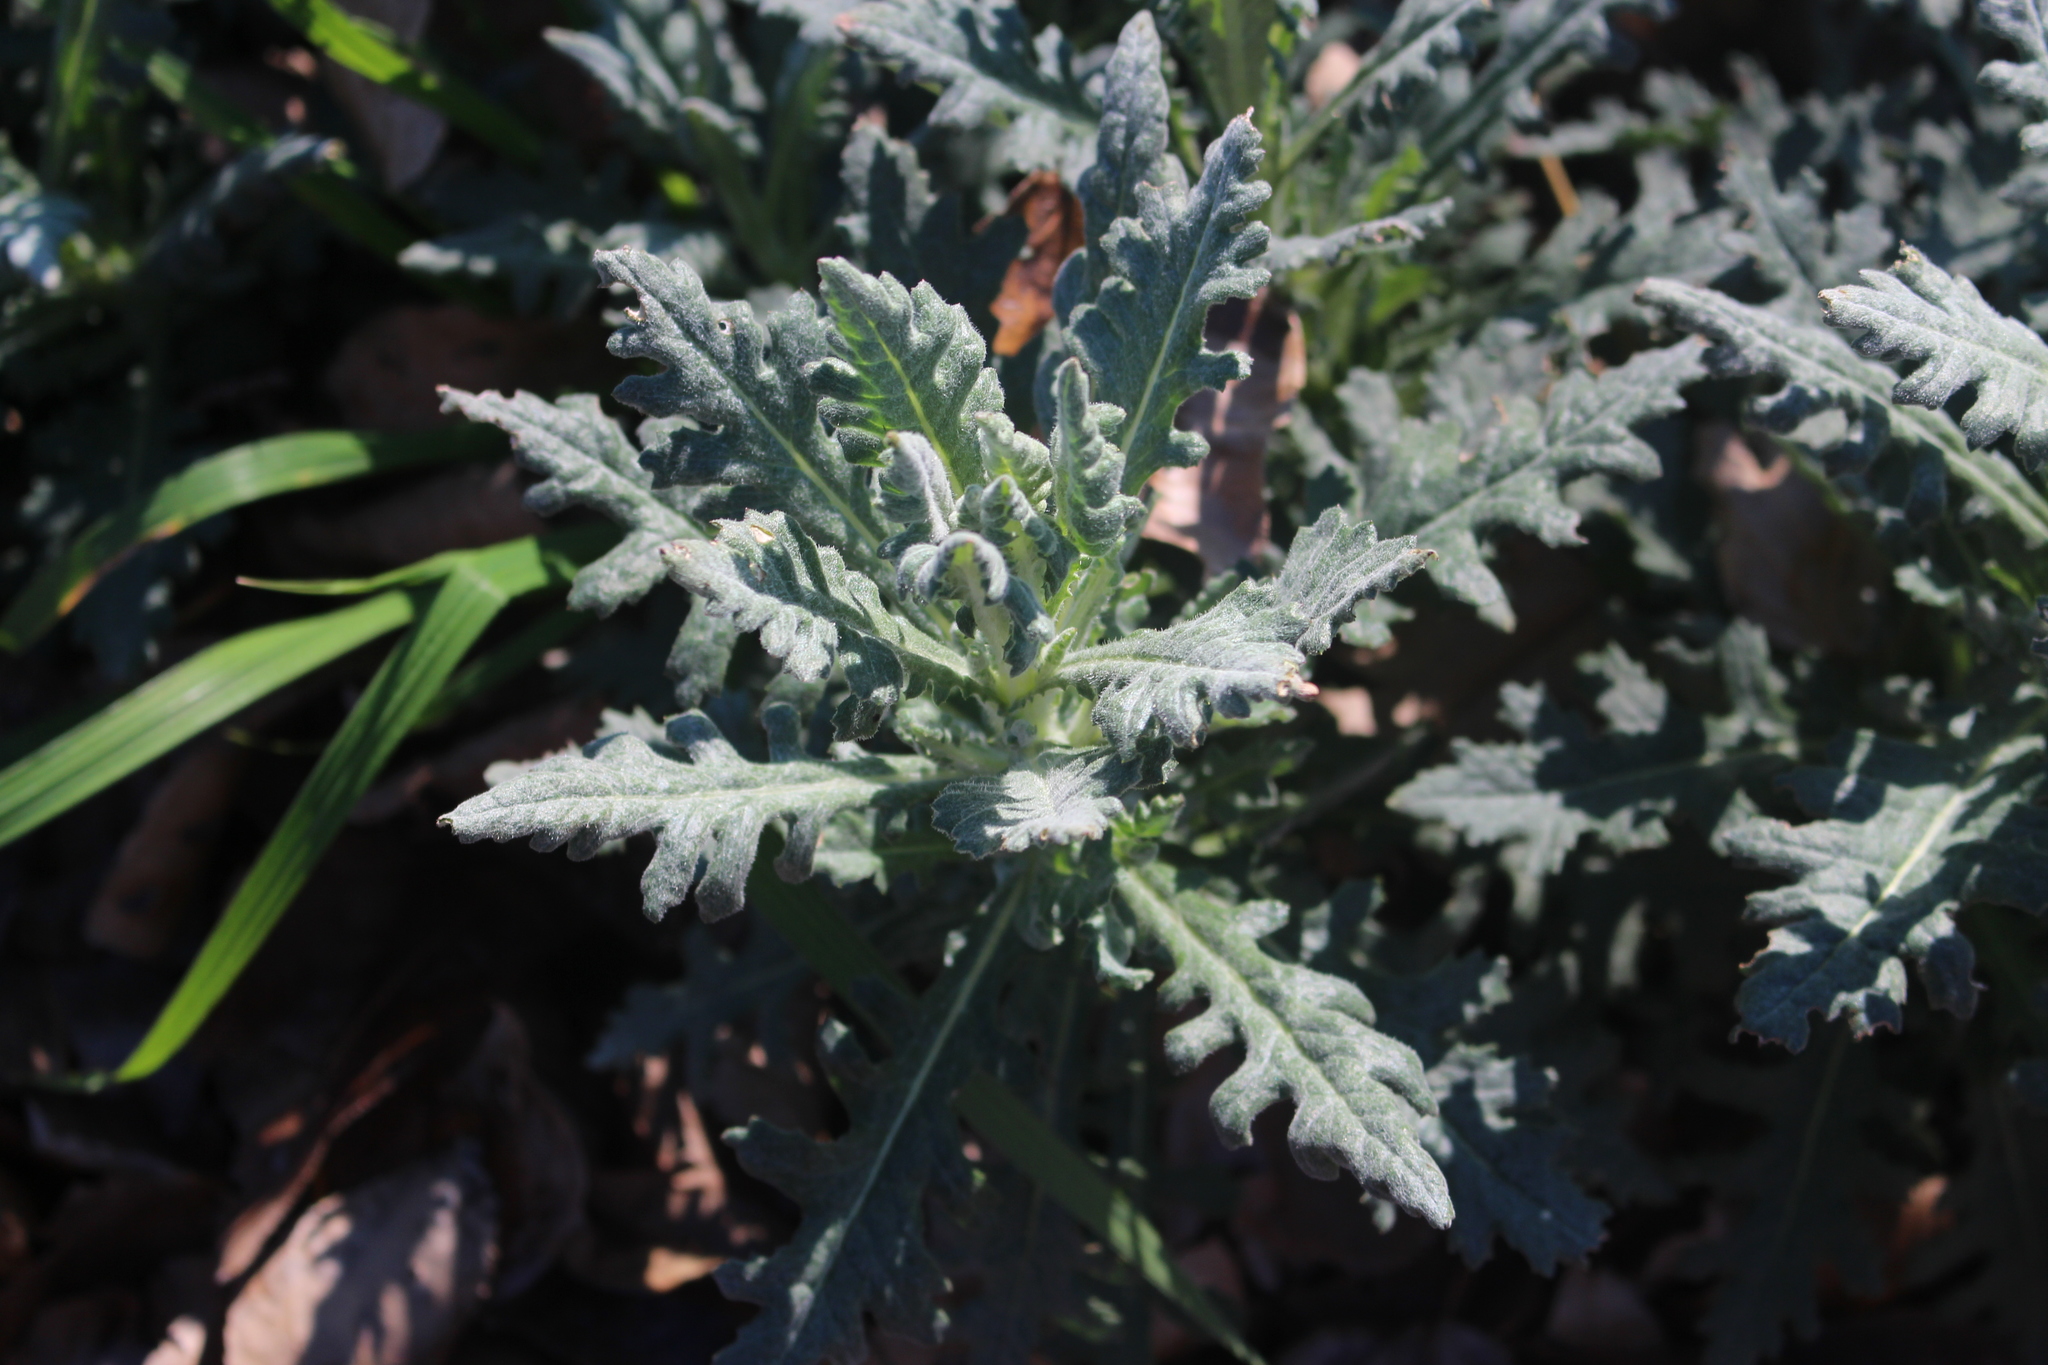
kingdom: Plantae
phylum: Tracheophyta
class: Magnoliopsida
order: Asterales
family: Asteraceae
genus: Senecio
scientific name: Senecio glomeratus
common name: Cutleaf burnweed
